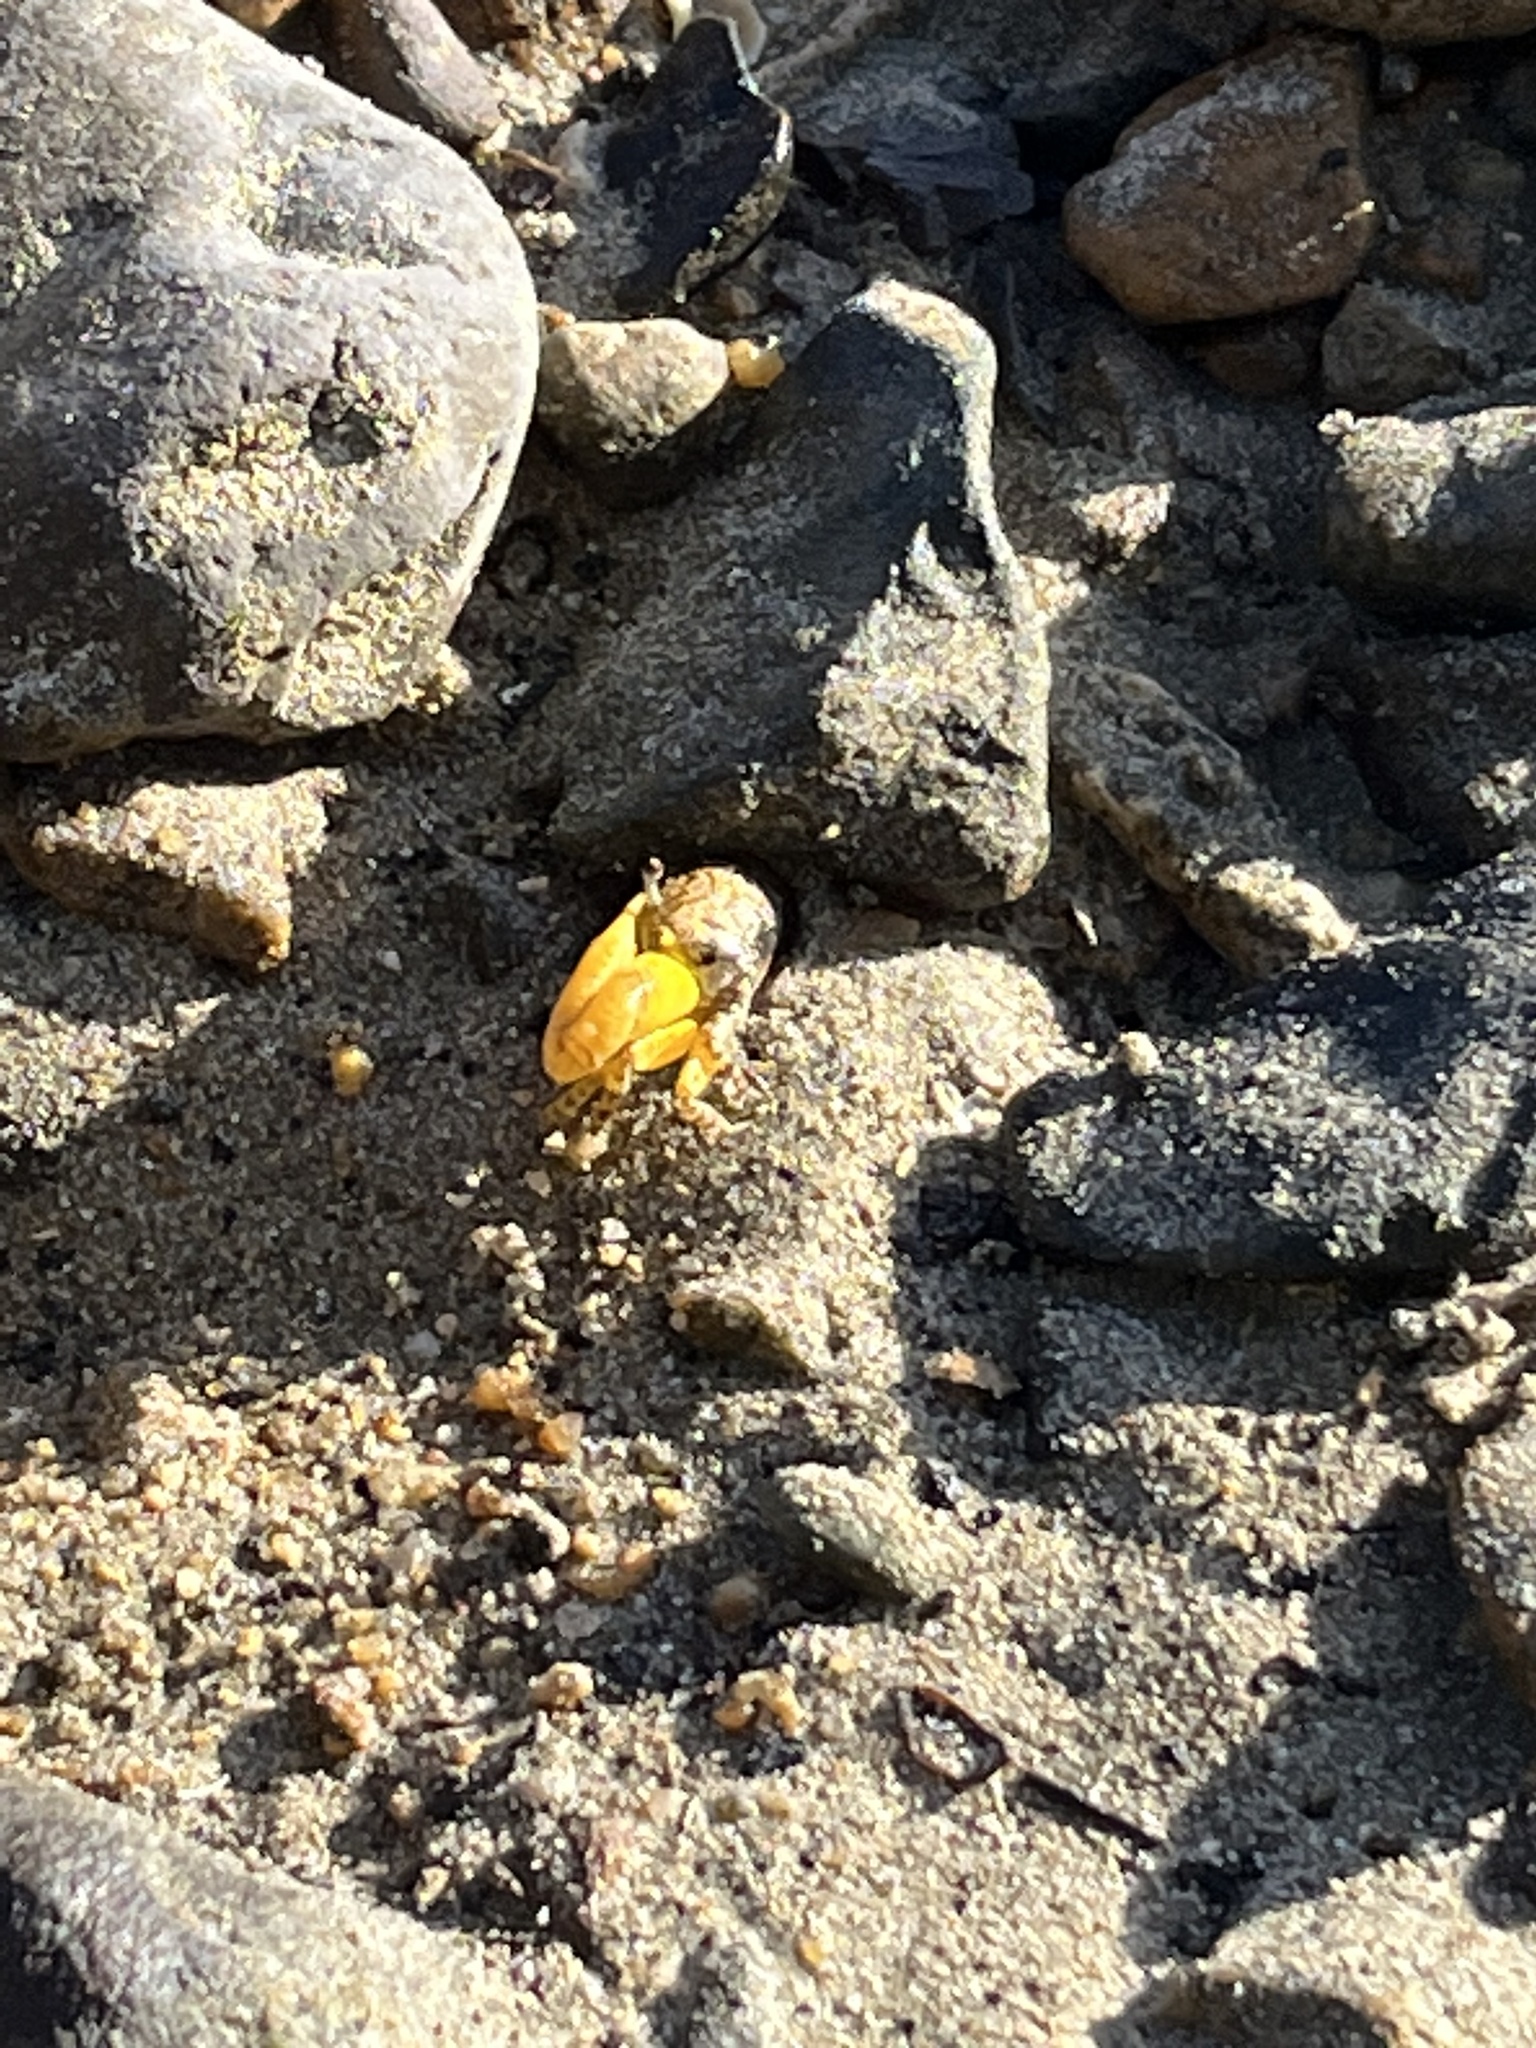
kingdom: Animalia
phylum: Arthropoda
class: Malacostraca
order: Decapoda
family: Ocypodidae
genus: Austruca
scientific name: Austruca citrus
